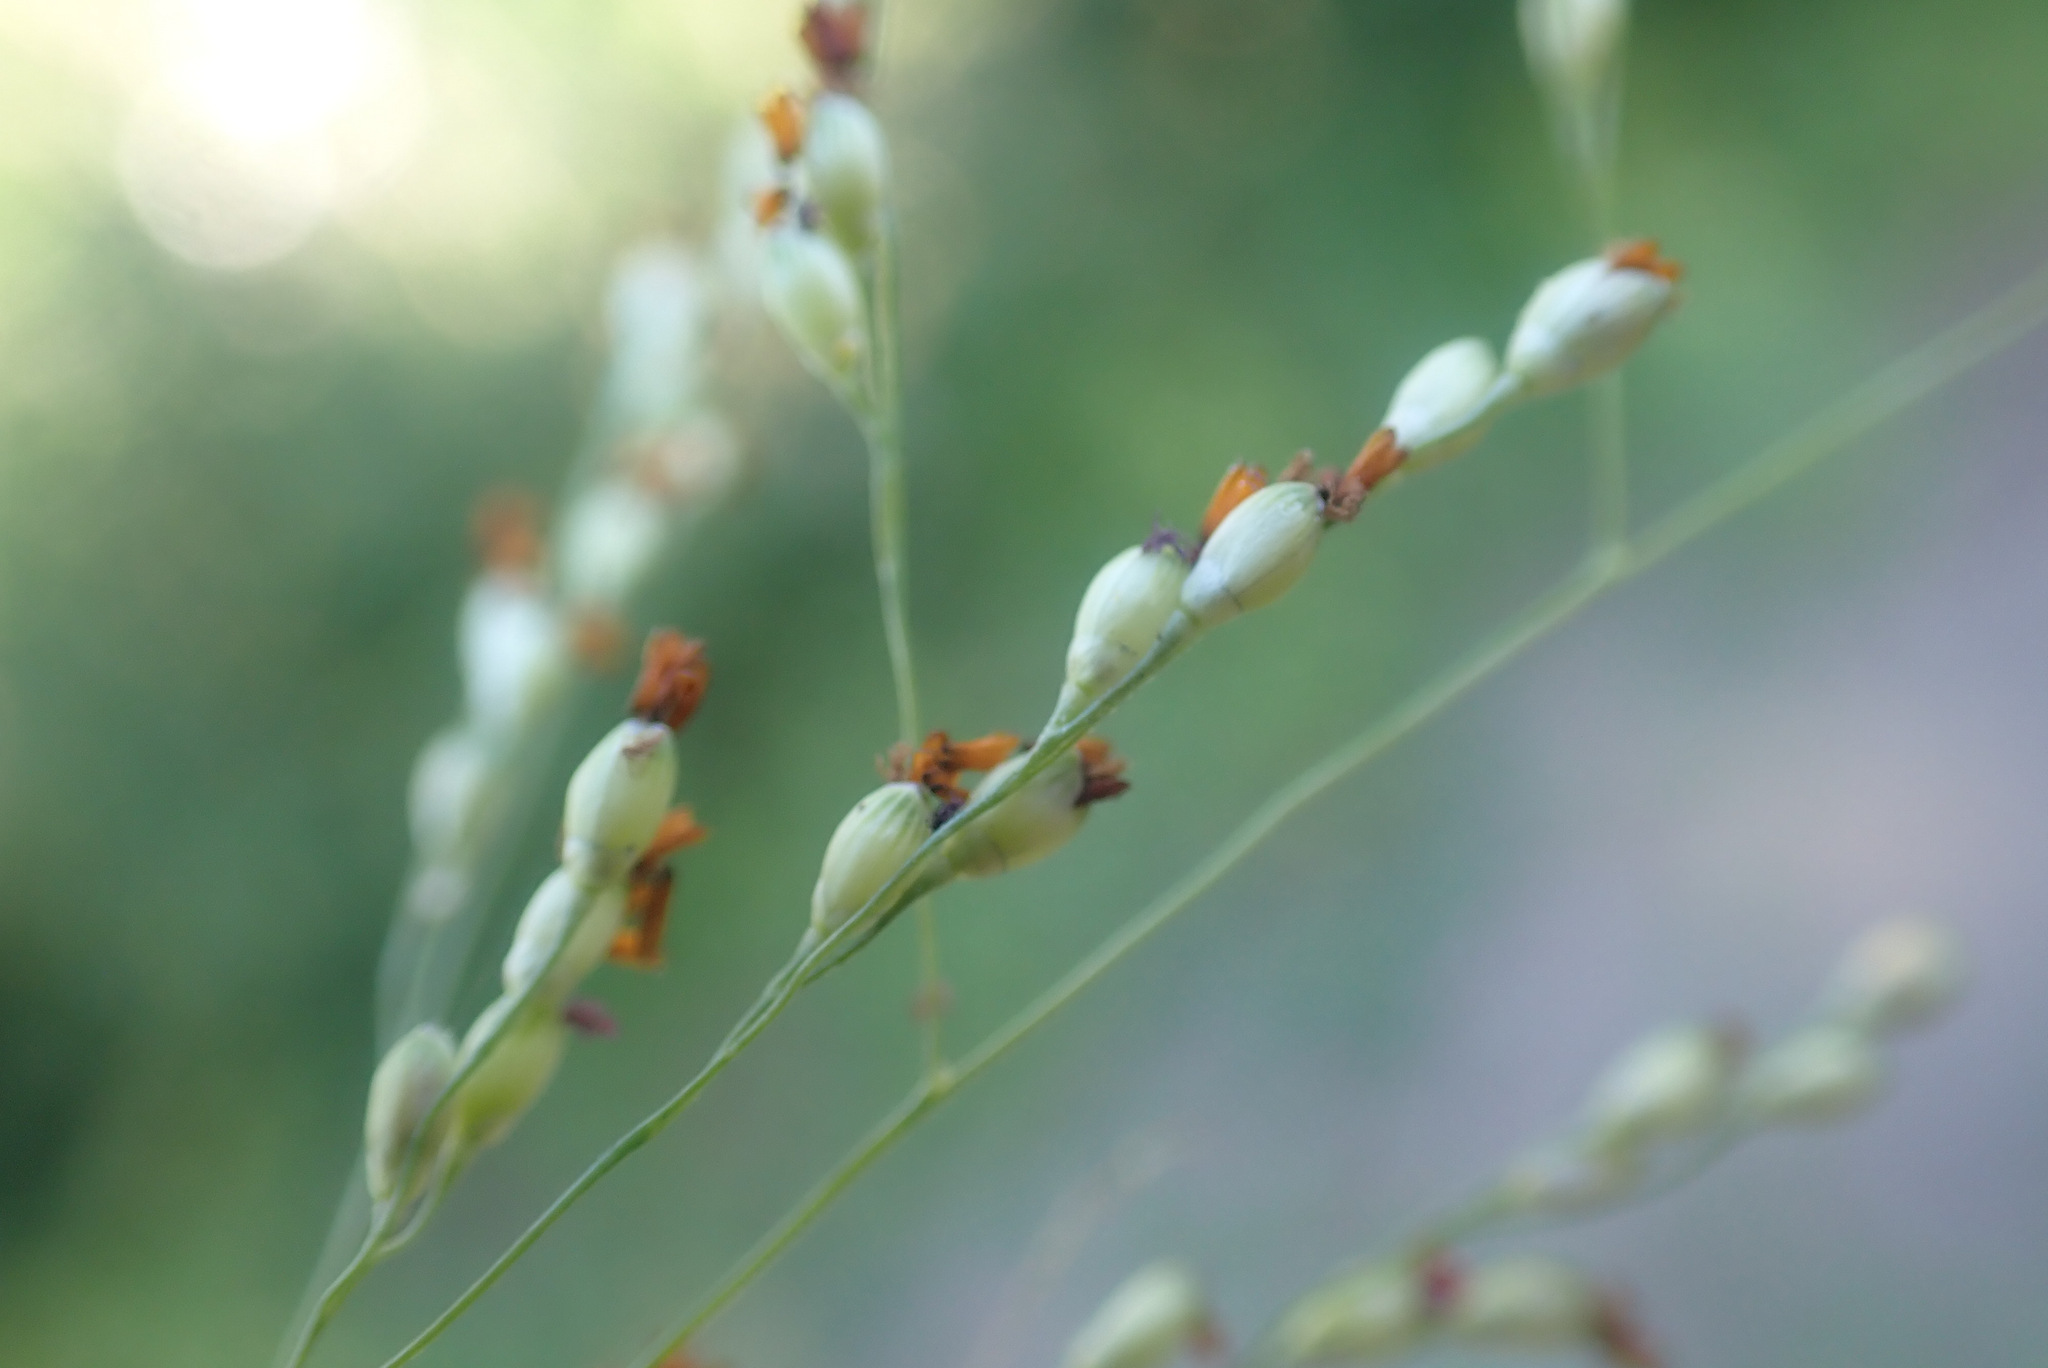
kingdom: Plantae
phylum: Tracheophyta
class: Liliopsida
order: Poales
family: Poaceae
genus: Panicum
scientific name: Panicum schinzii
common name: Sweet grass
